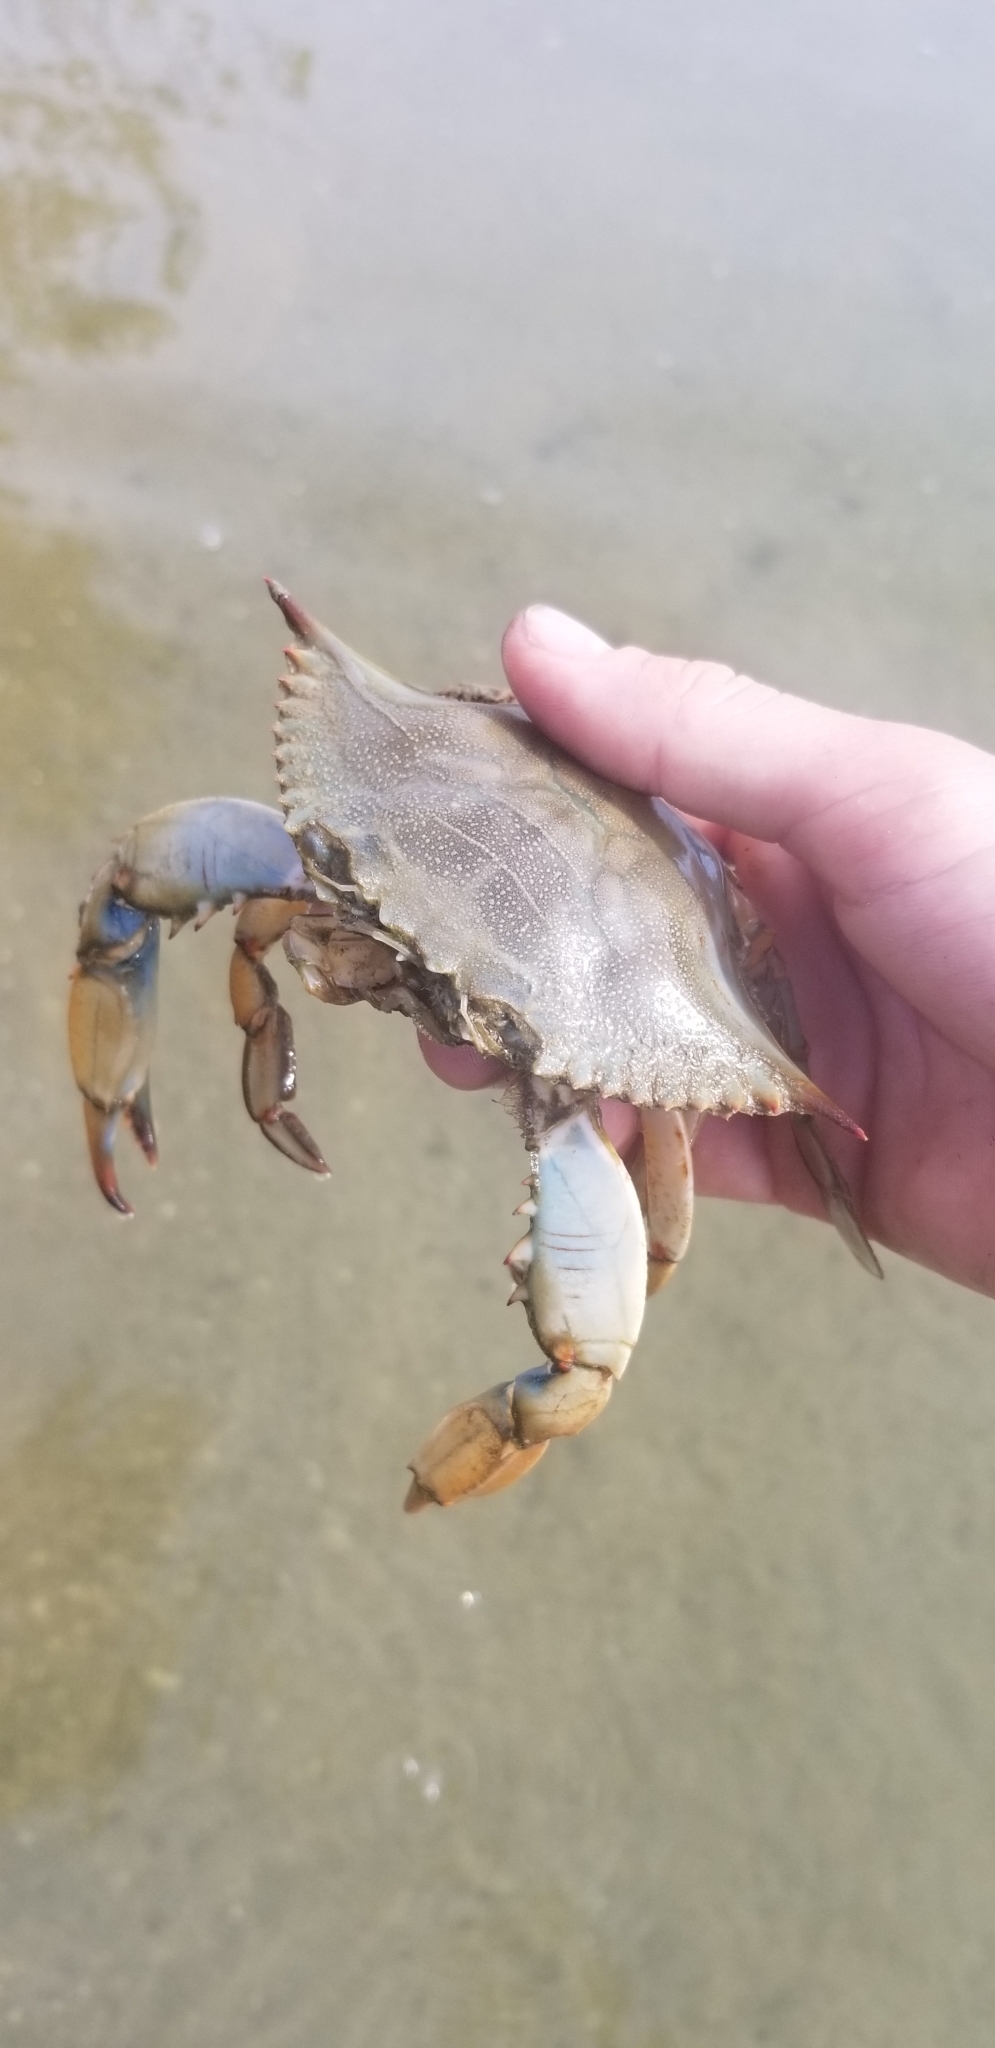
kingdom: Animalia
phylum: Arthropoda
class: Malacostraca
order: Decapoda
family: Portunidae
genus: Callinectes
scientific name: Callinectes sapidus
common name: Blue crab
